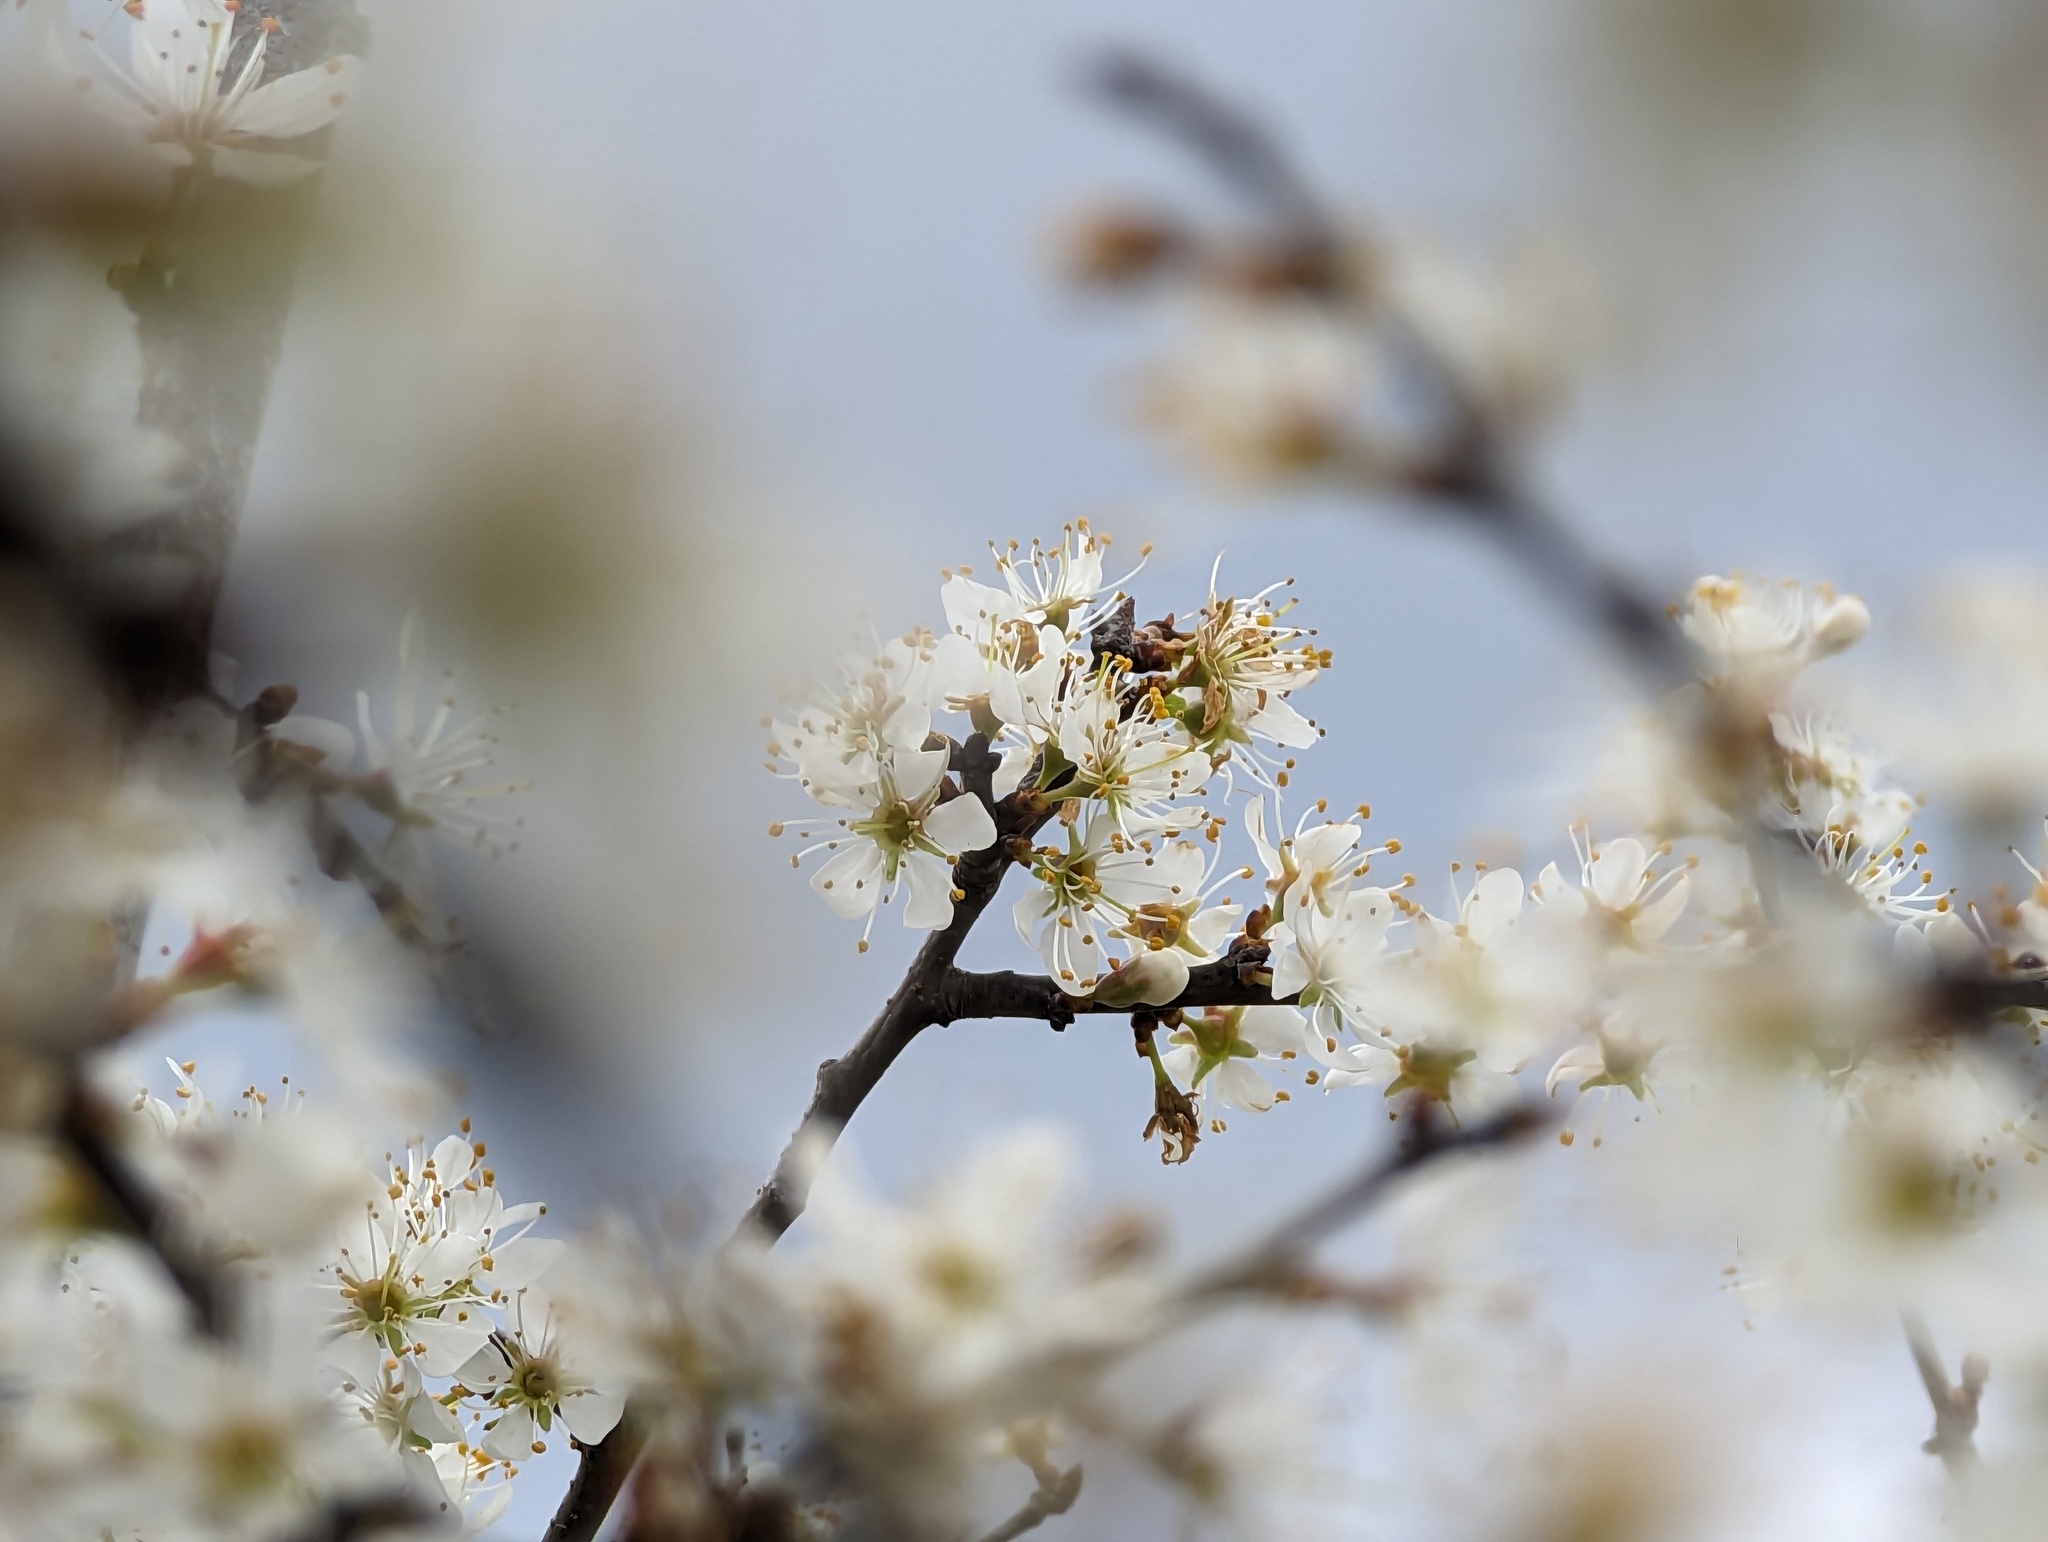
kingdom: Plantae
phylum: Tracheophyta
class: Magnoliopsida
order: Rosales
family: Rosaceae
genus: Prunus
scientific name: Prunus spinosa
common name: Blackthorn
